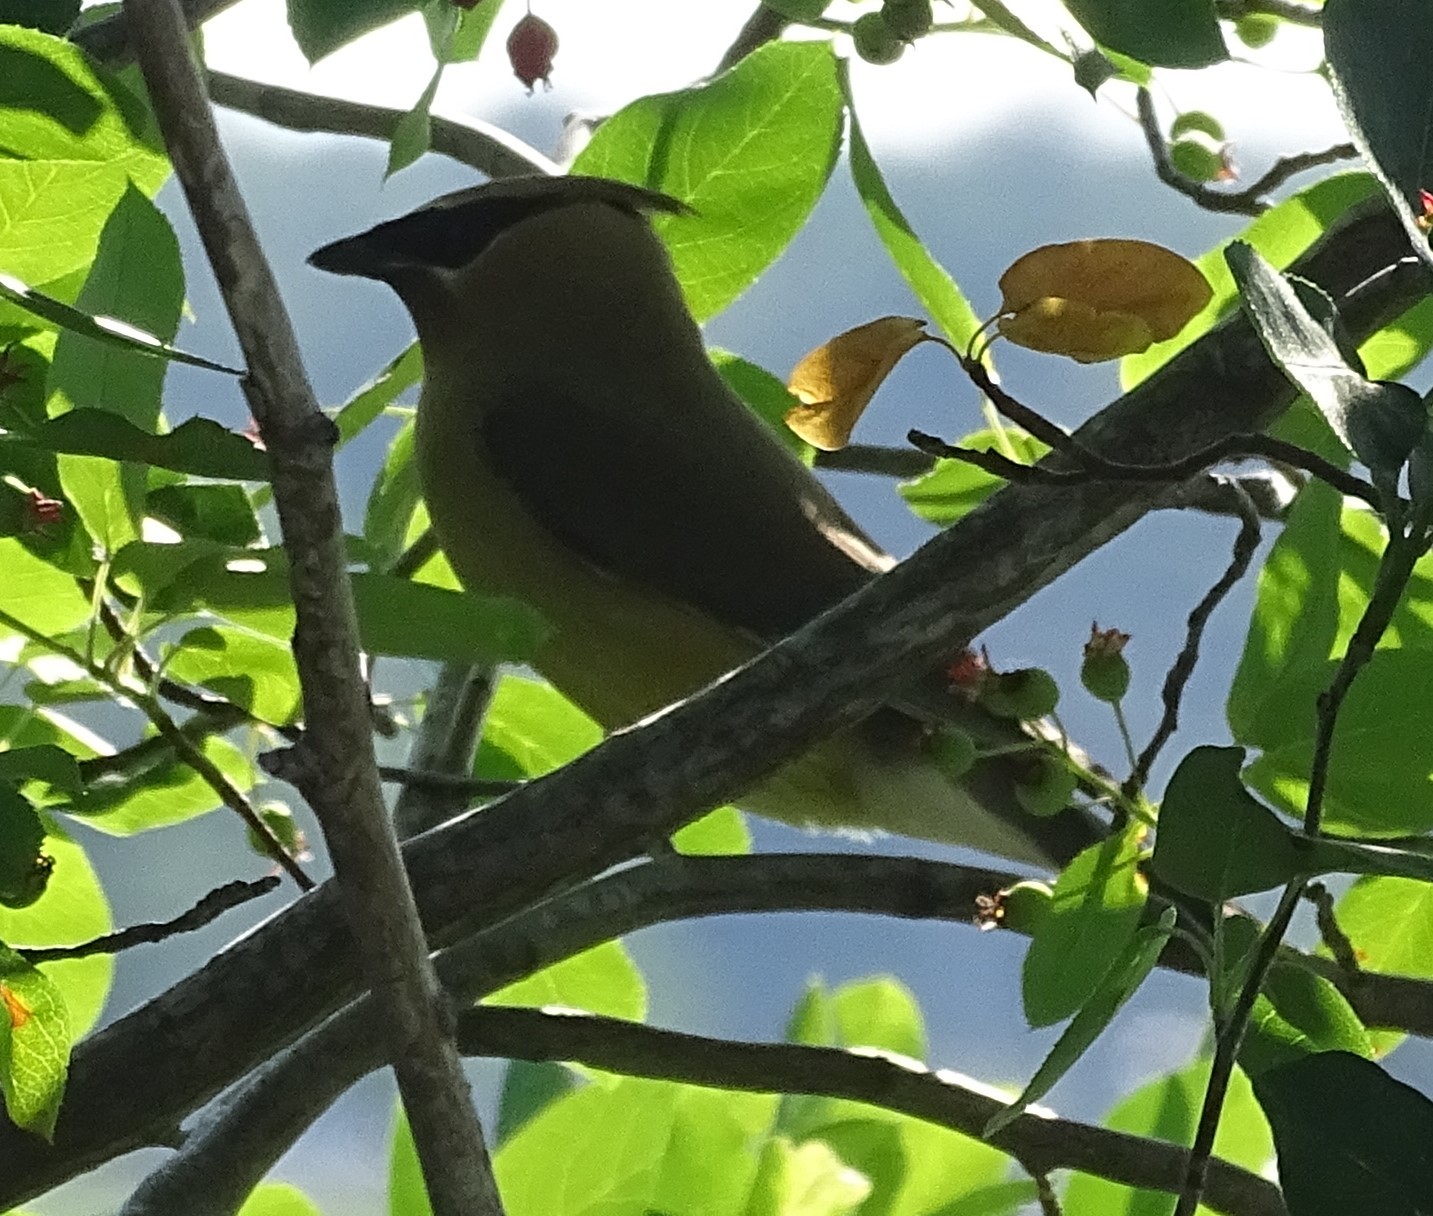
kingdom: Animalia
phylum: Chordata
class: Aves
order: Passeriformes
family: Bombycillidae
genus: Bombycilla
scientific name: Bombycilla cedrorum
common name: Cedar waxwing
